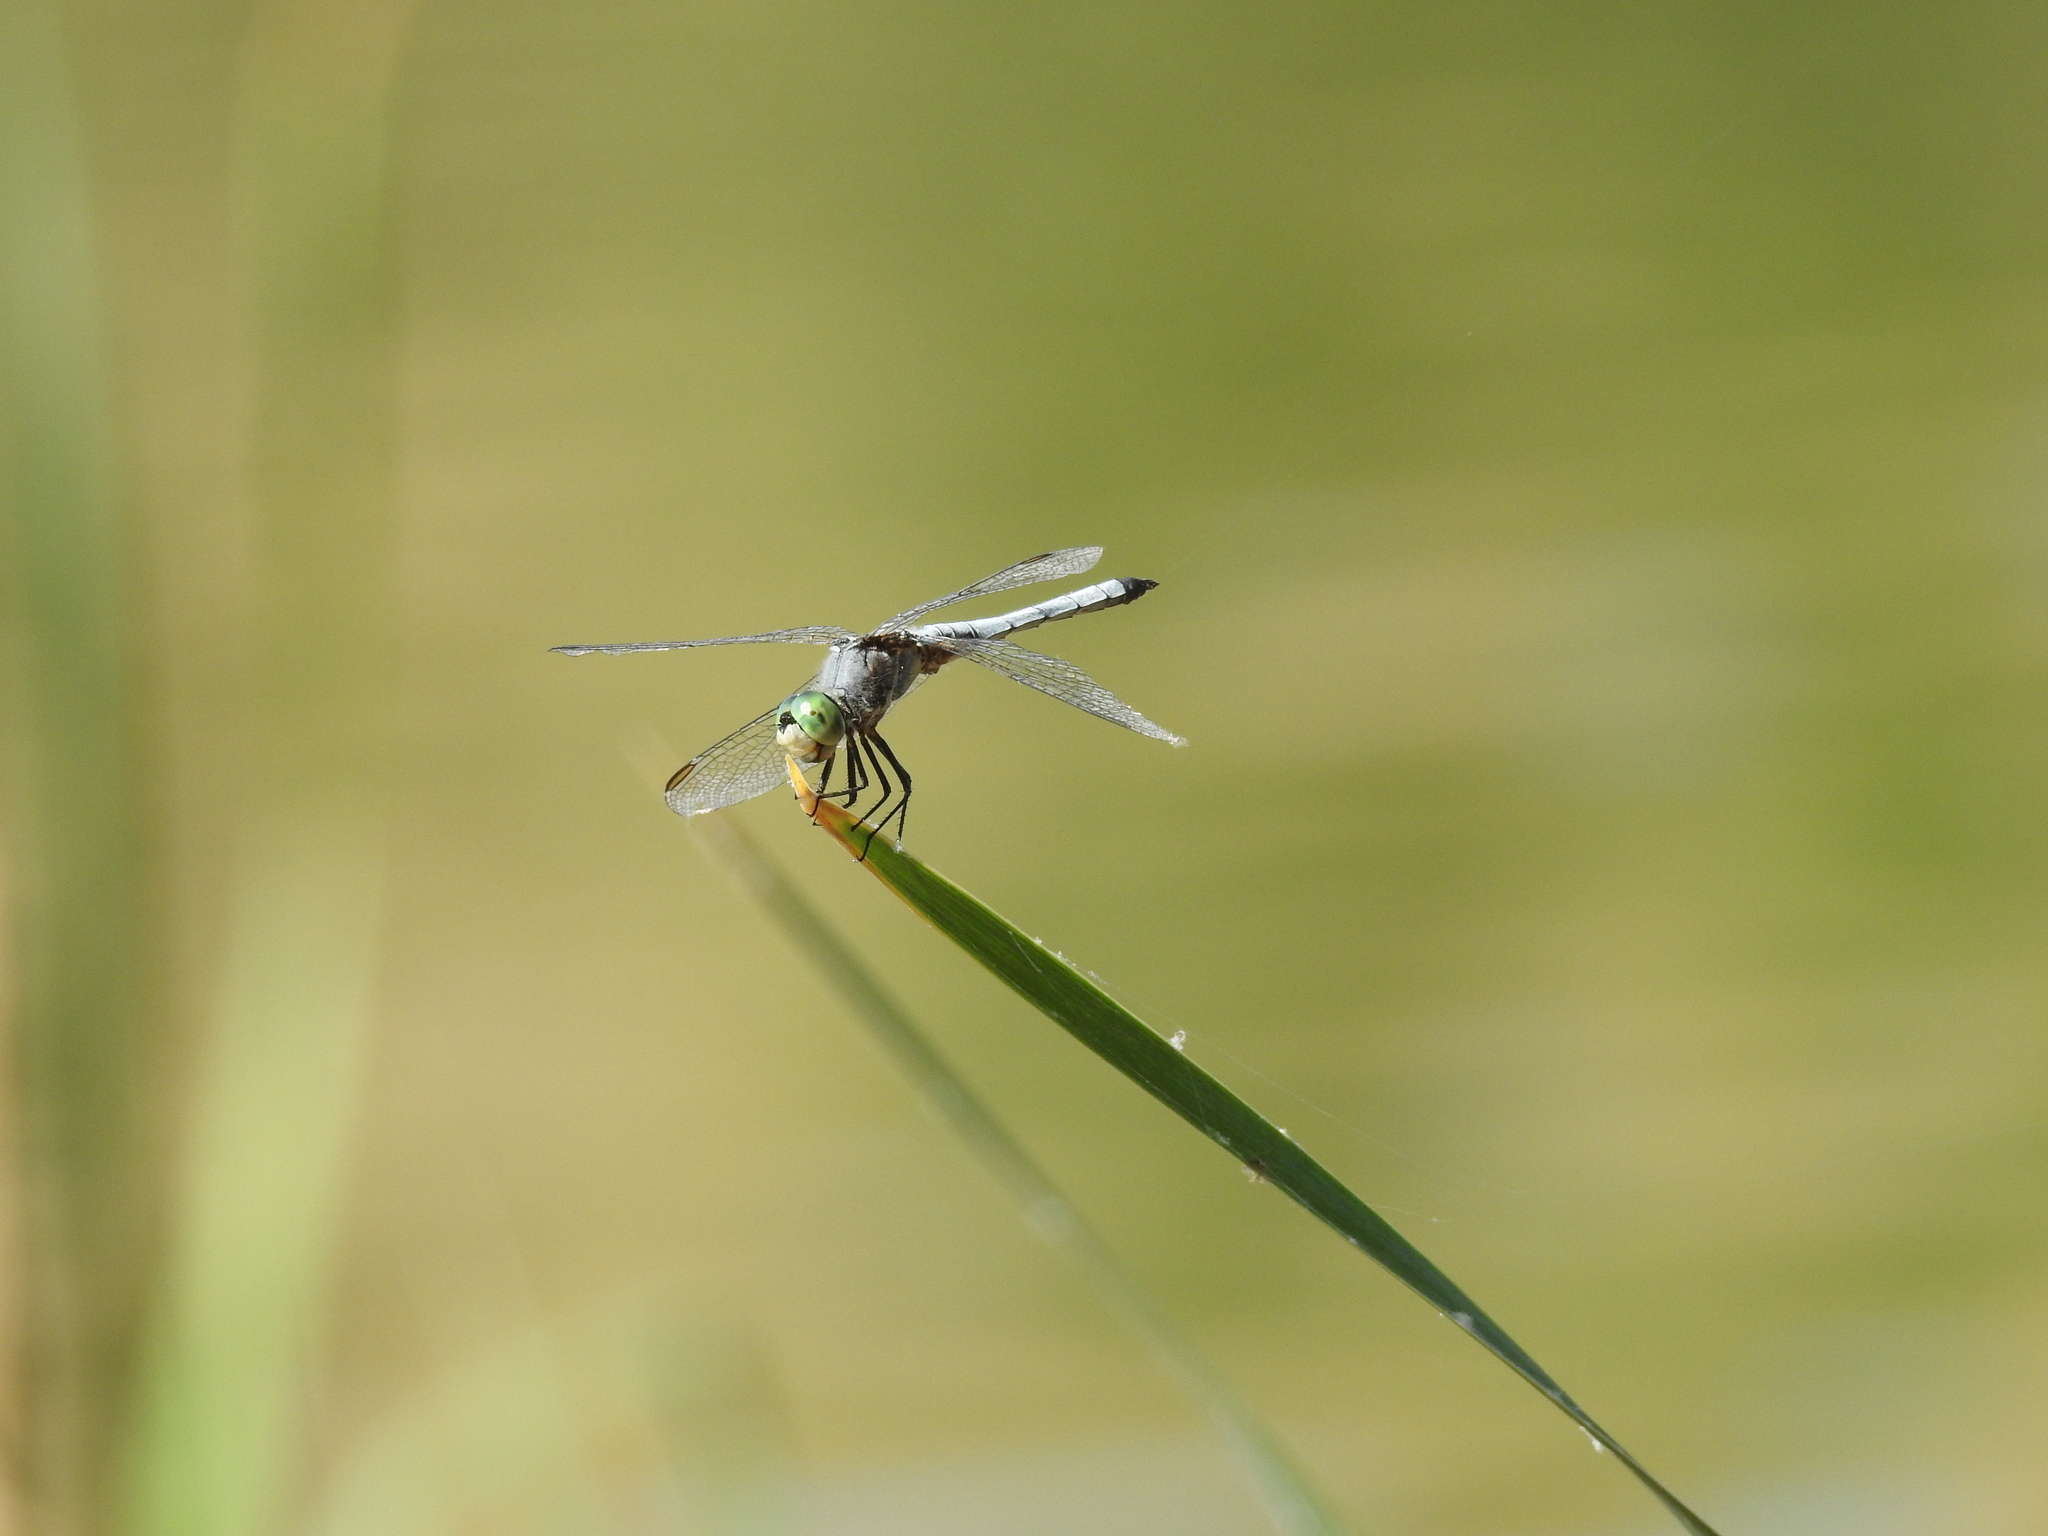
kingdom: Animalia
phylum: Arthropoda
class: Insecta
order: Odonata
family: Libellulidae
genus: Pachydiplax
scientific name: Pachydiplax longipennis
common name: Blue dasher
